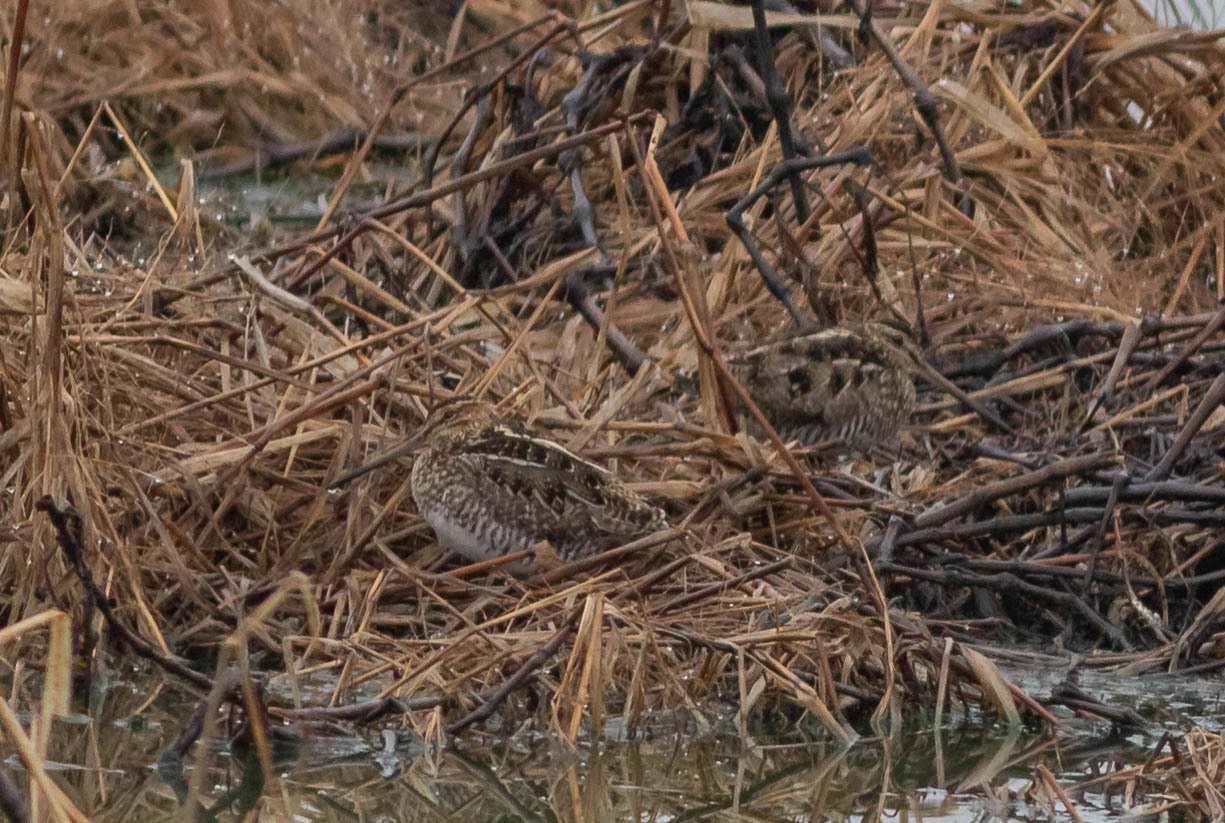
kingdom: Animalia
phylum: Chordata
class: Aves
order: Charadriiformes
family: Scolopacidae
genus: Gallinago
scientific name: Gallinago delicata
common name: Wilson's snipe
